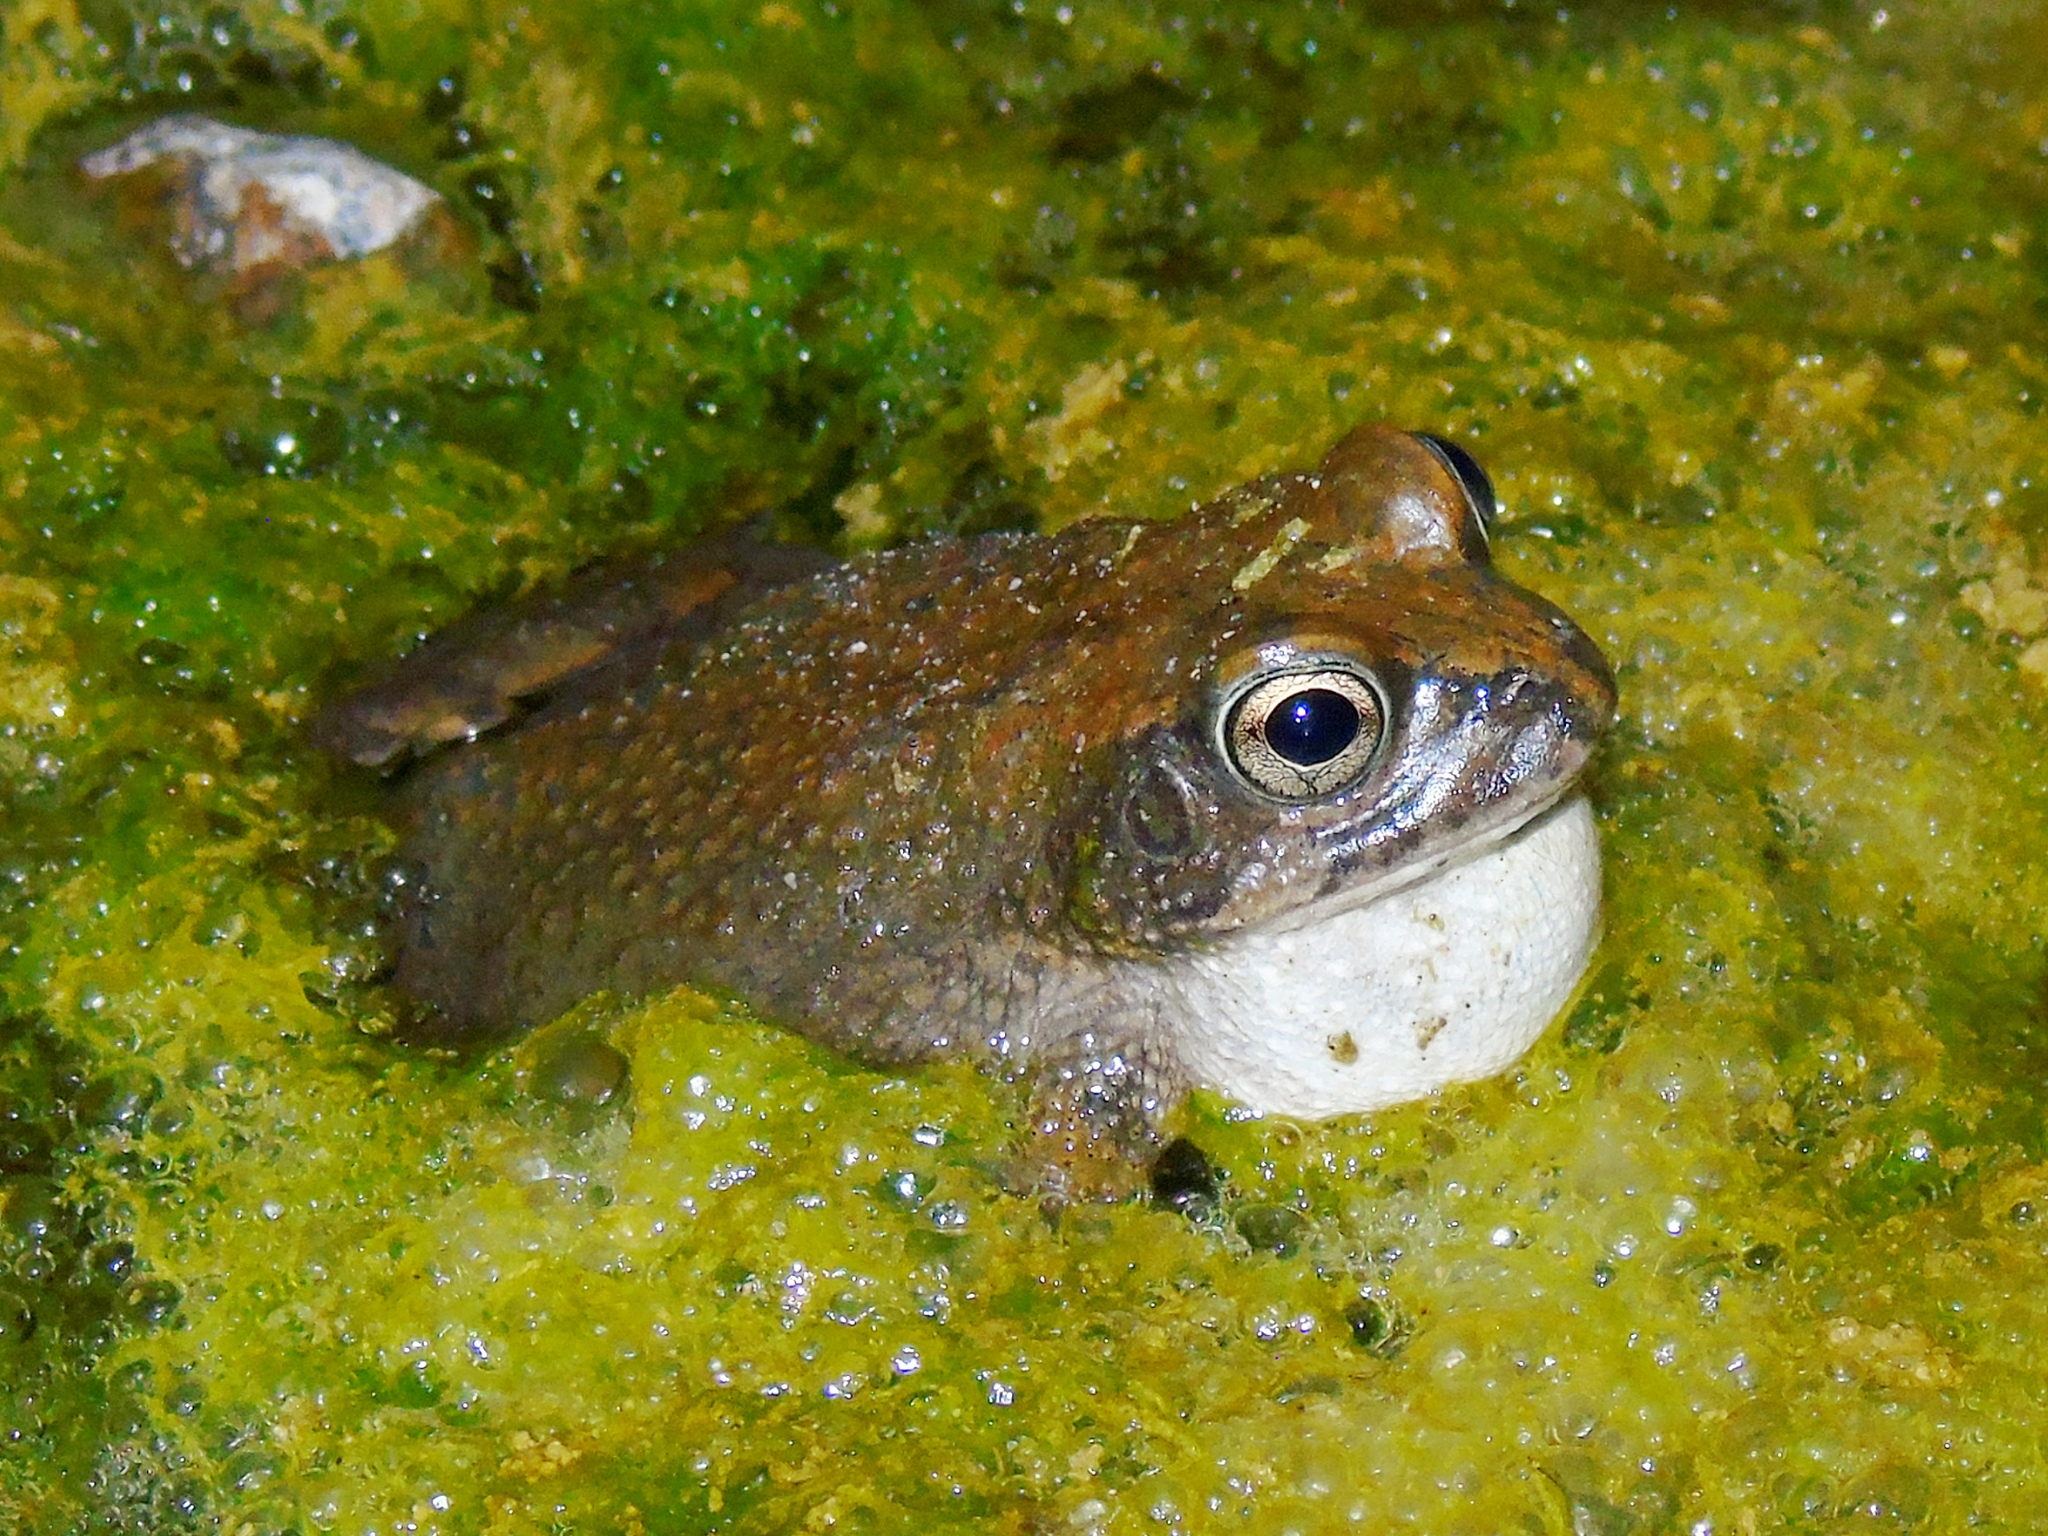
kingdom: Animalia
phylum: Chordata
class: Amphibia
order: Anura
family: Bufonidae
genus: Sclerophrys
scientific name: Sclerophrys arabica
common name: Arabian toad
